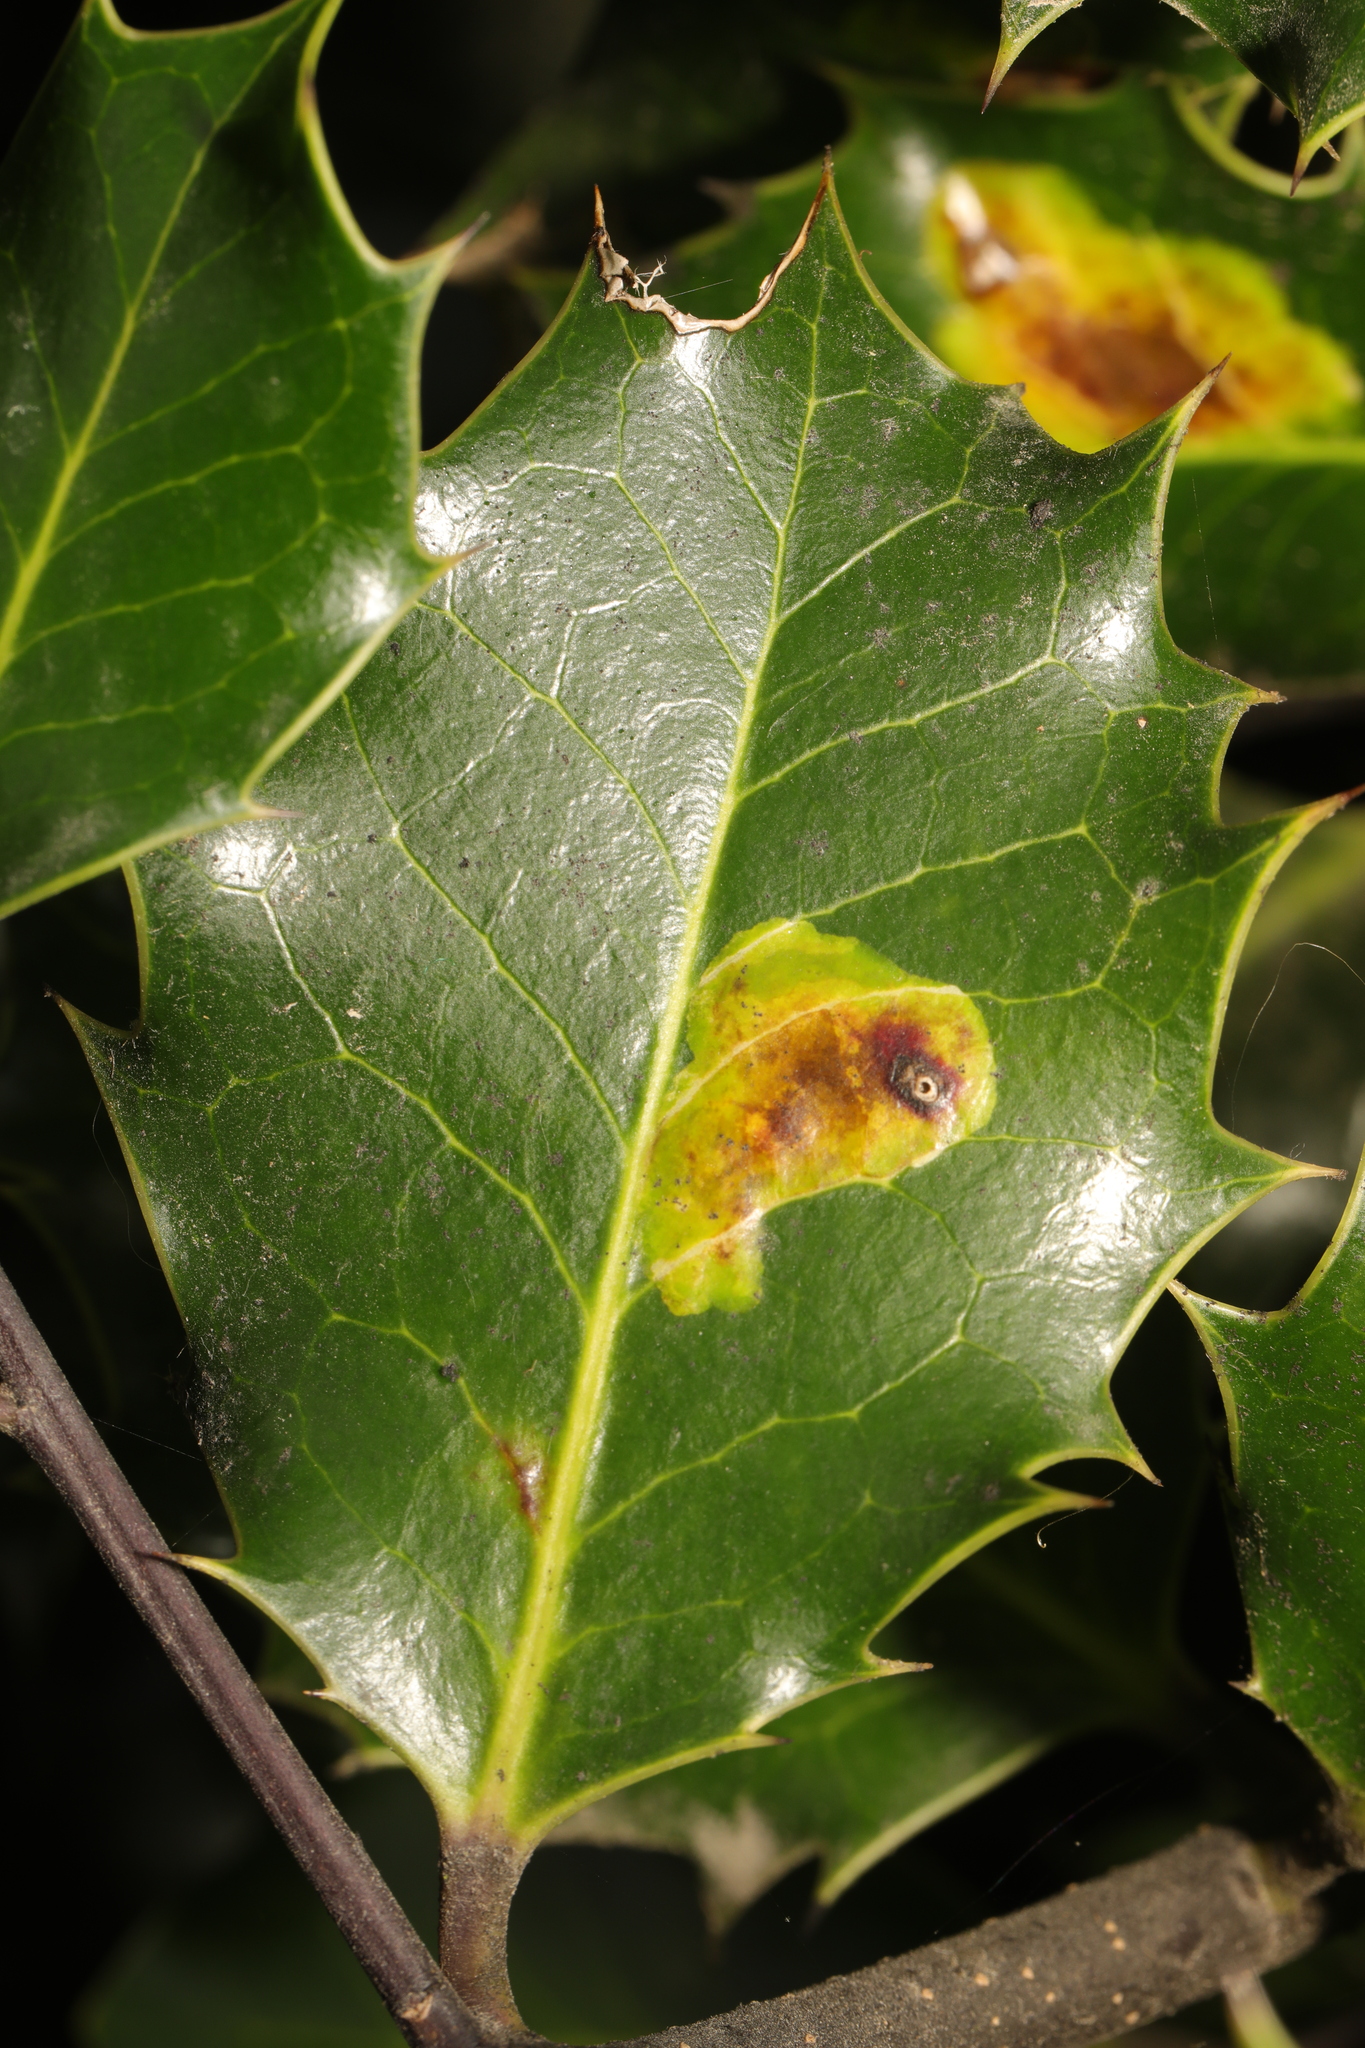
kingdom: Animalia
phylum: Arthropoda
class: Insecta
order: Diptera
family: Agromyzidae
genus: Phytomyza
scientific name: Phytomyza ilicis
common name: Holly leafminer
